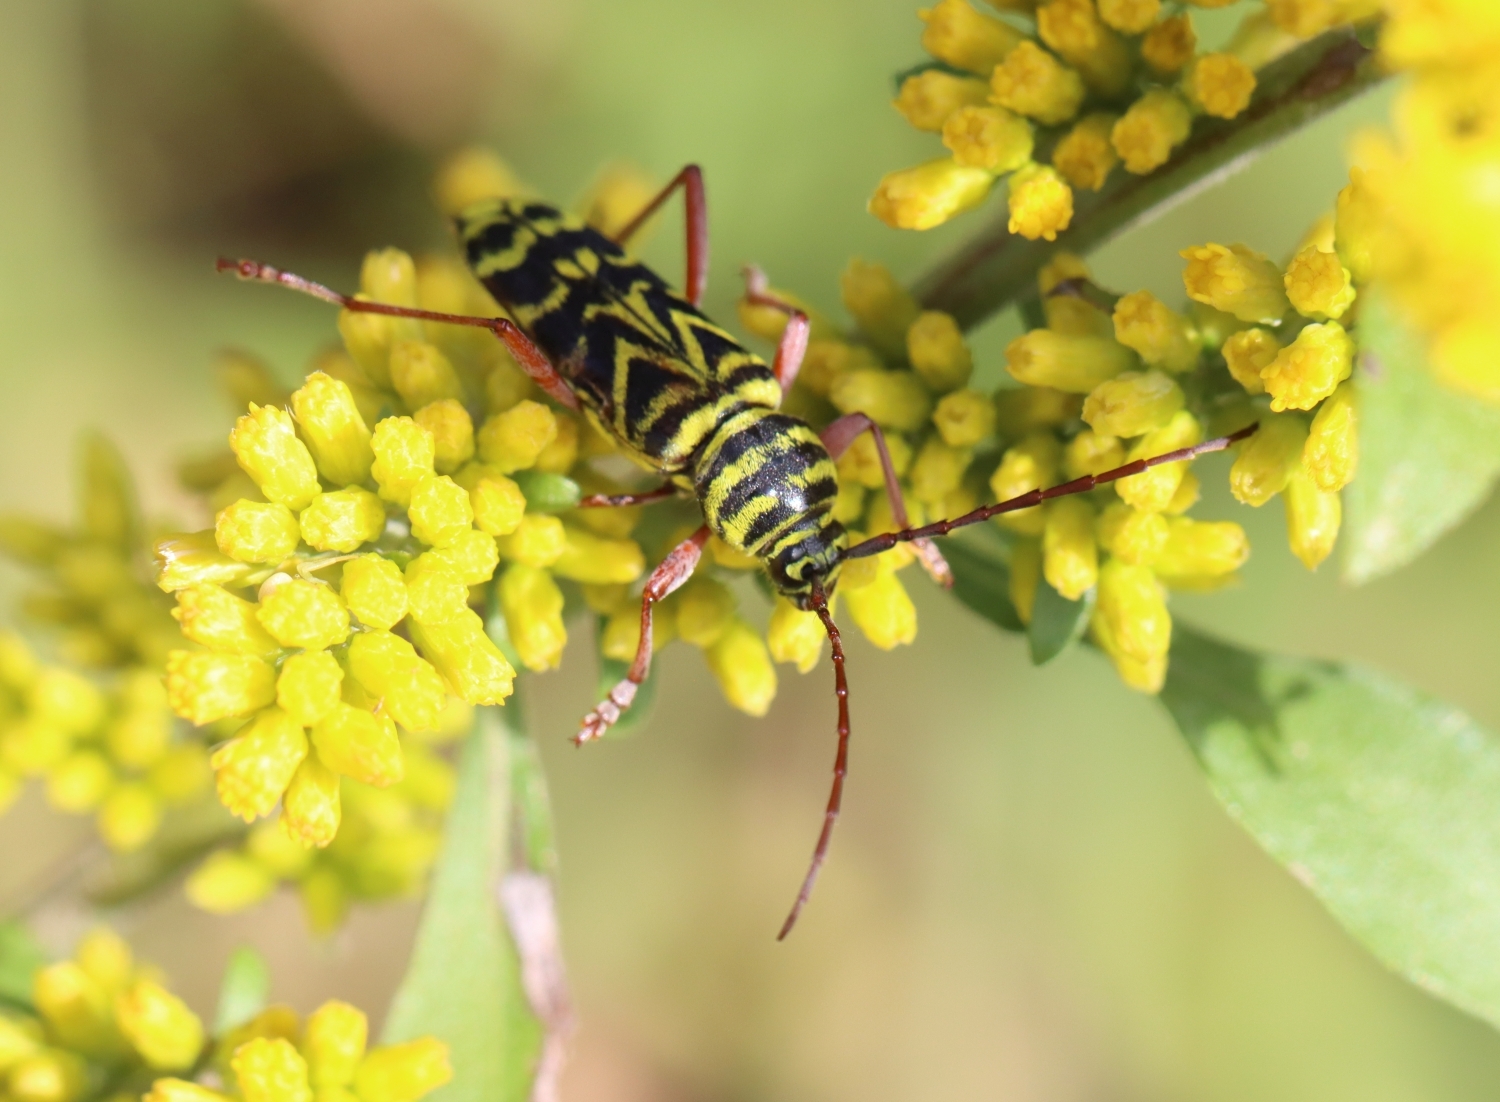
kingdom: Animalia
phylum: Arthropoda
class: Insecta
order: Coleoptera
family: Cerambycidae
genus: Megacyllene
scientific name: Megacyllene robiniae
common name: Locust borer
